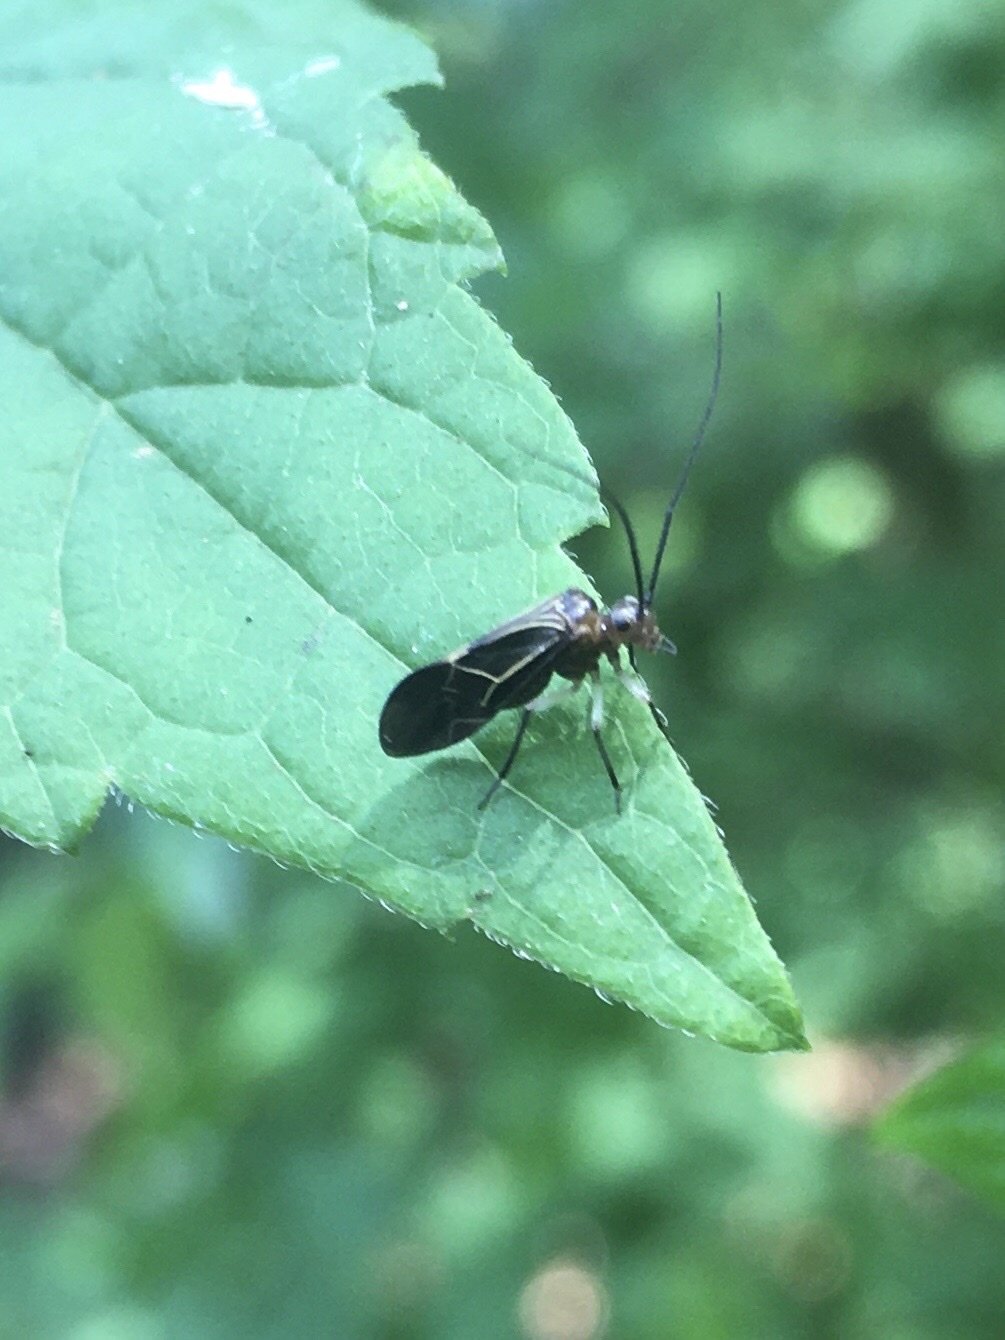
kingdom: Animalia
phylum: Arthropoda
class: Insecta
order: Psocodea
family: Psocidae
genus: Cerastipsocus
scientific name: Cerastipsocus venosus
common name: Tree cattle
